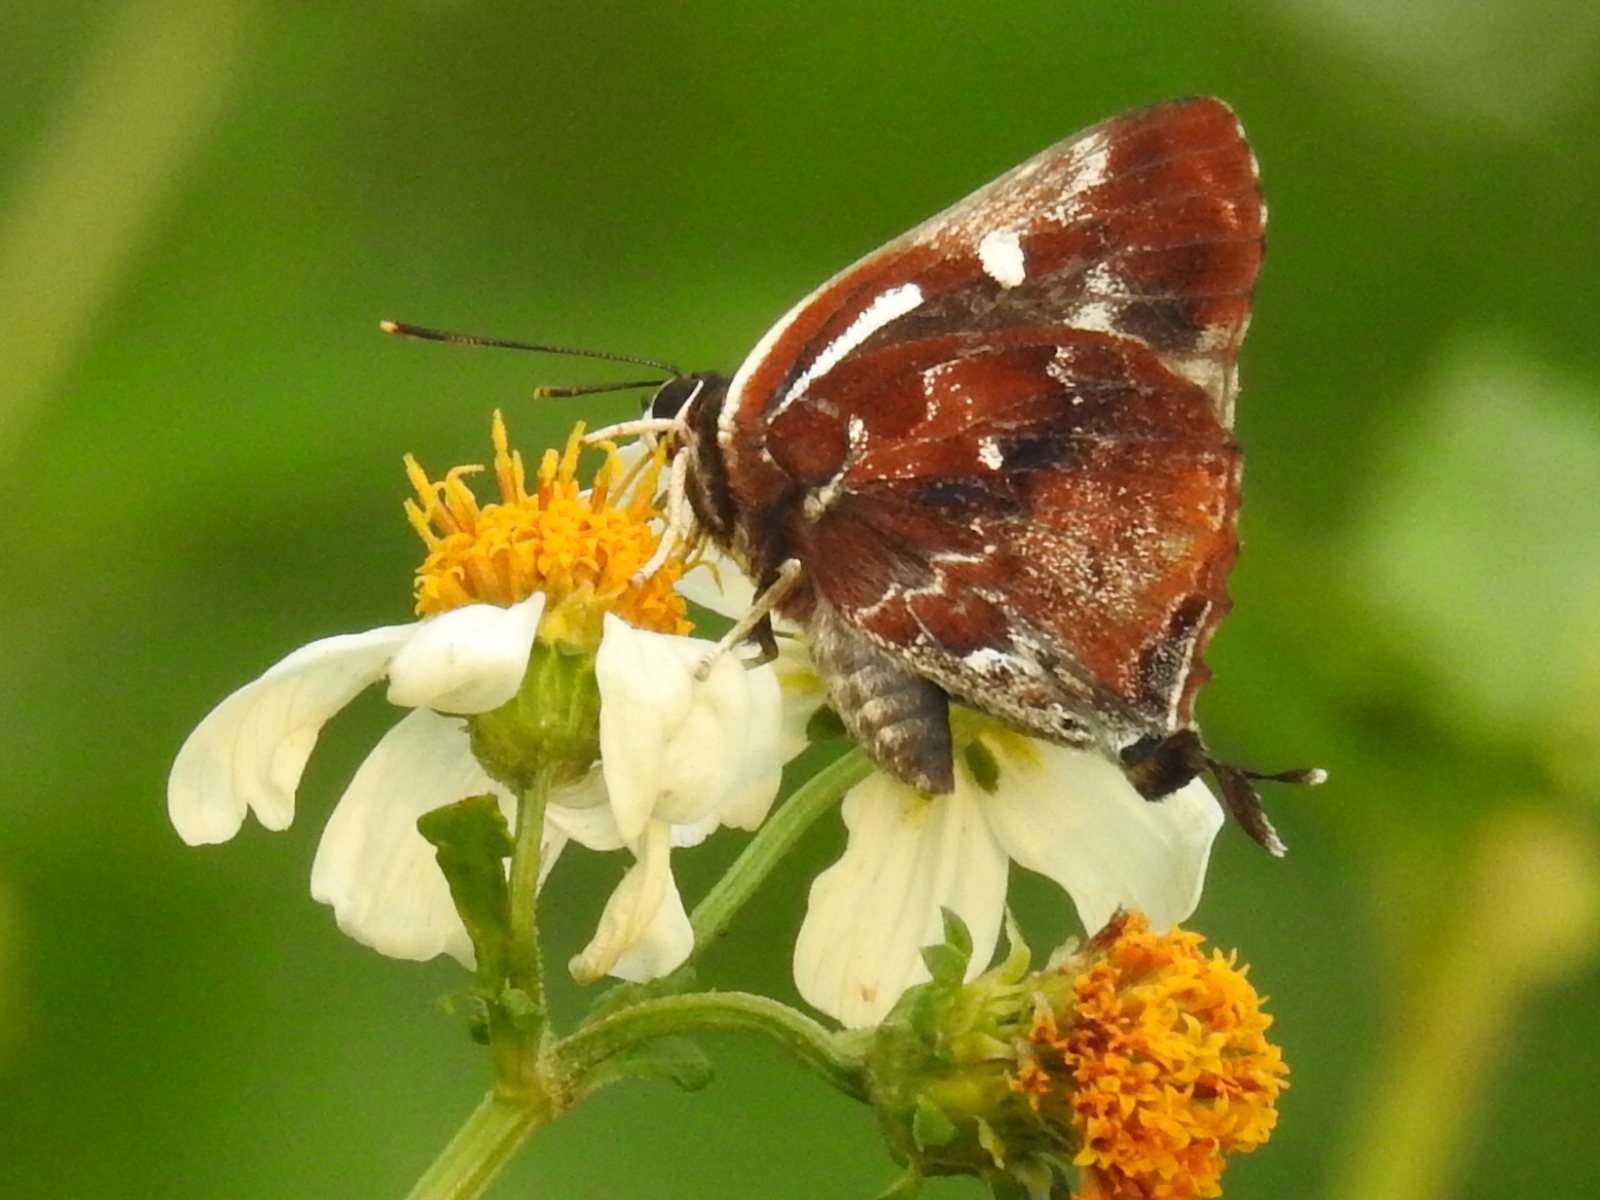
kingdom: Animalia
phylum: Arthropoda
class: Insecta
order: Lepidoptera
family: Lycaenidae
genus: Iraota
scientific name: Iraota timoleon
